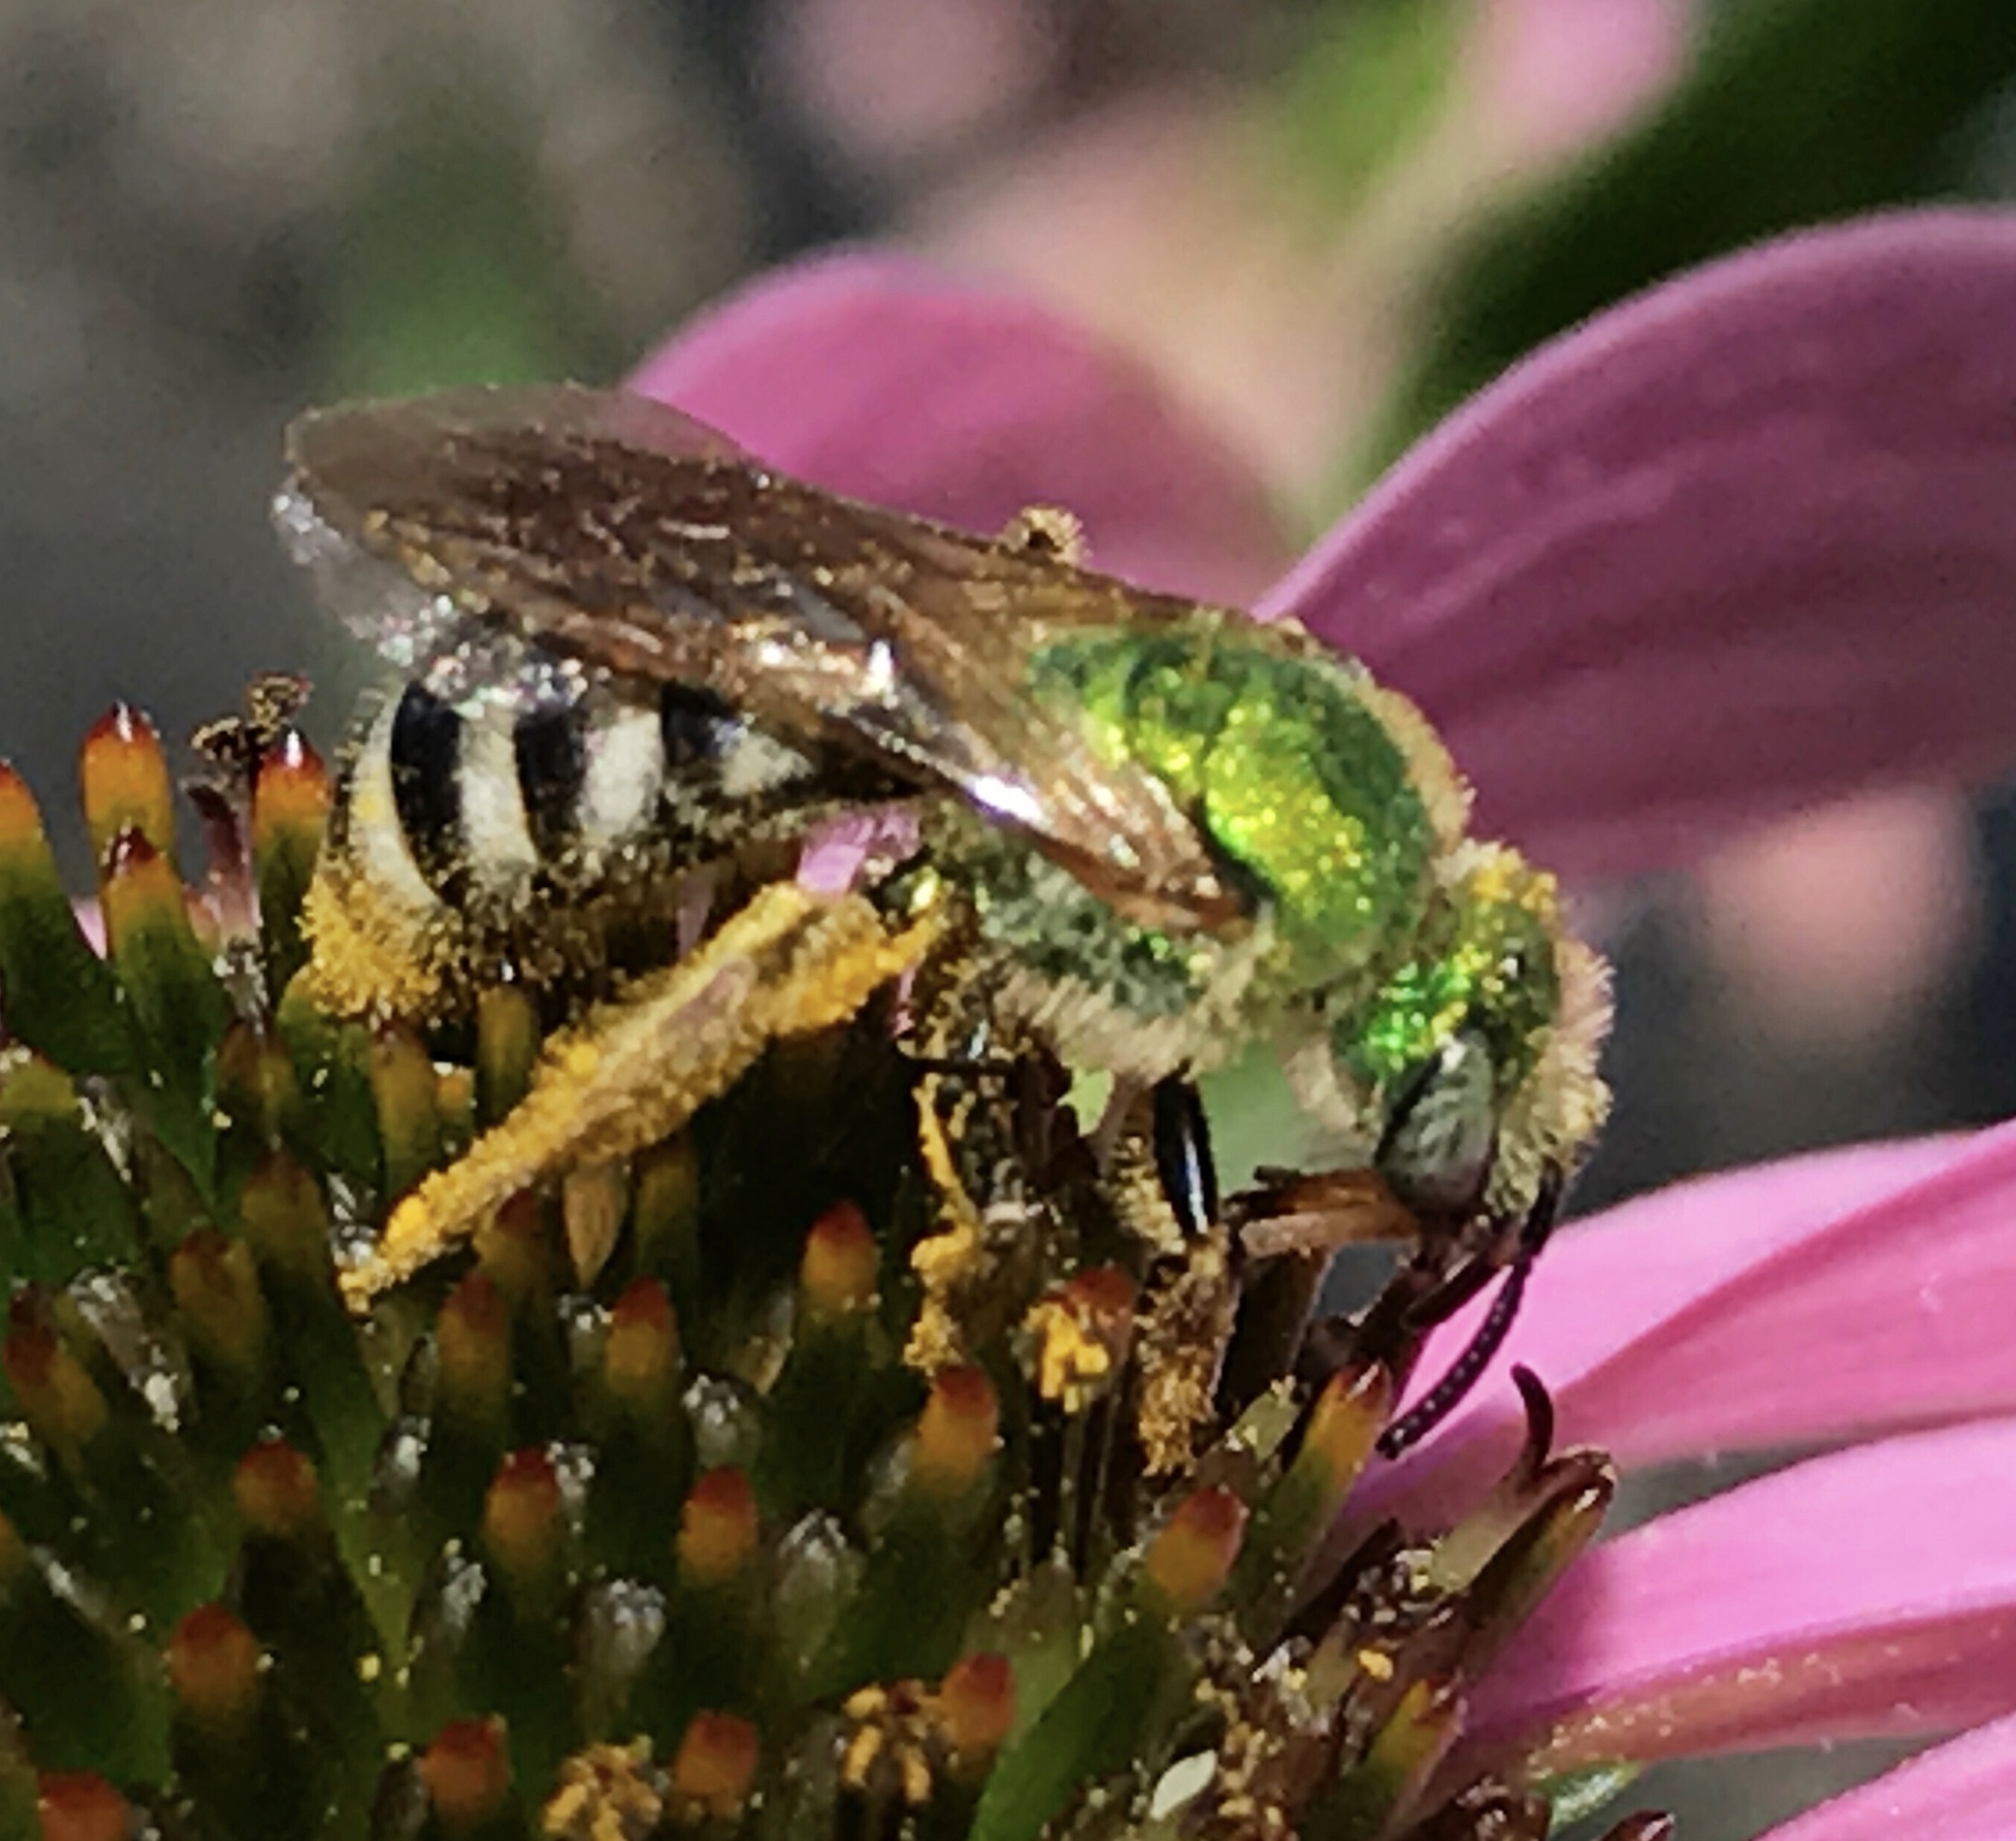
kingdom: Animalia
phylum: Arthropoda
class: Insecta
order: Hymenoptera
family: Halictidae
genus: Agapostemon
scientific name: Agapostemon virescens
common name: Bicolored striped sweat bee
